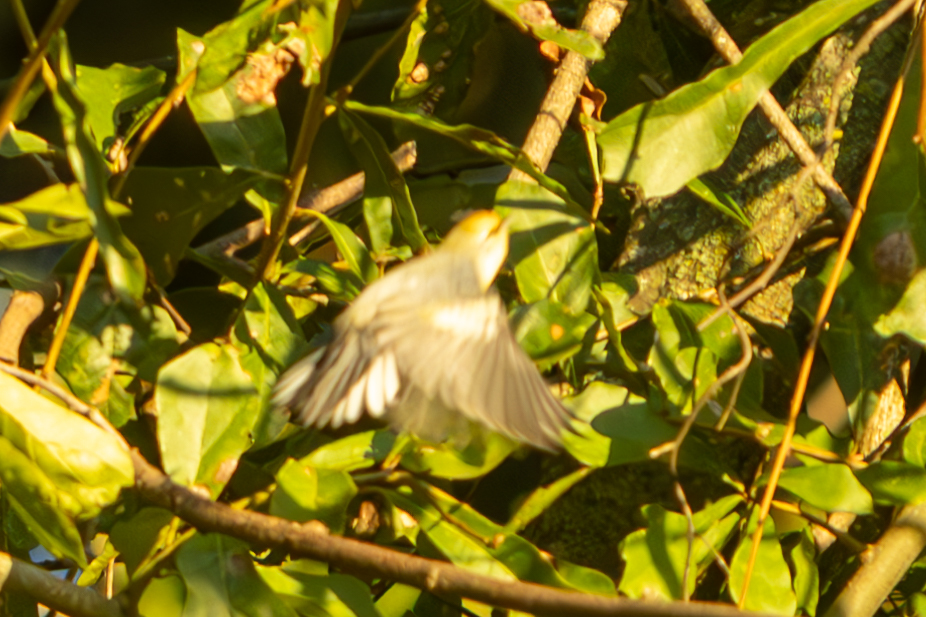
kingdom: Animalia
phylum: Chordata
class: Aves
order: Passeriformes
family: Parulidae
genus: Vermivora
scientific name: Vermivora
